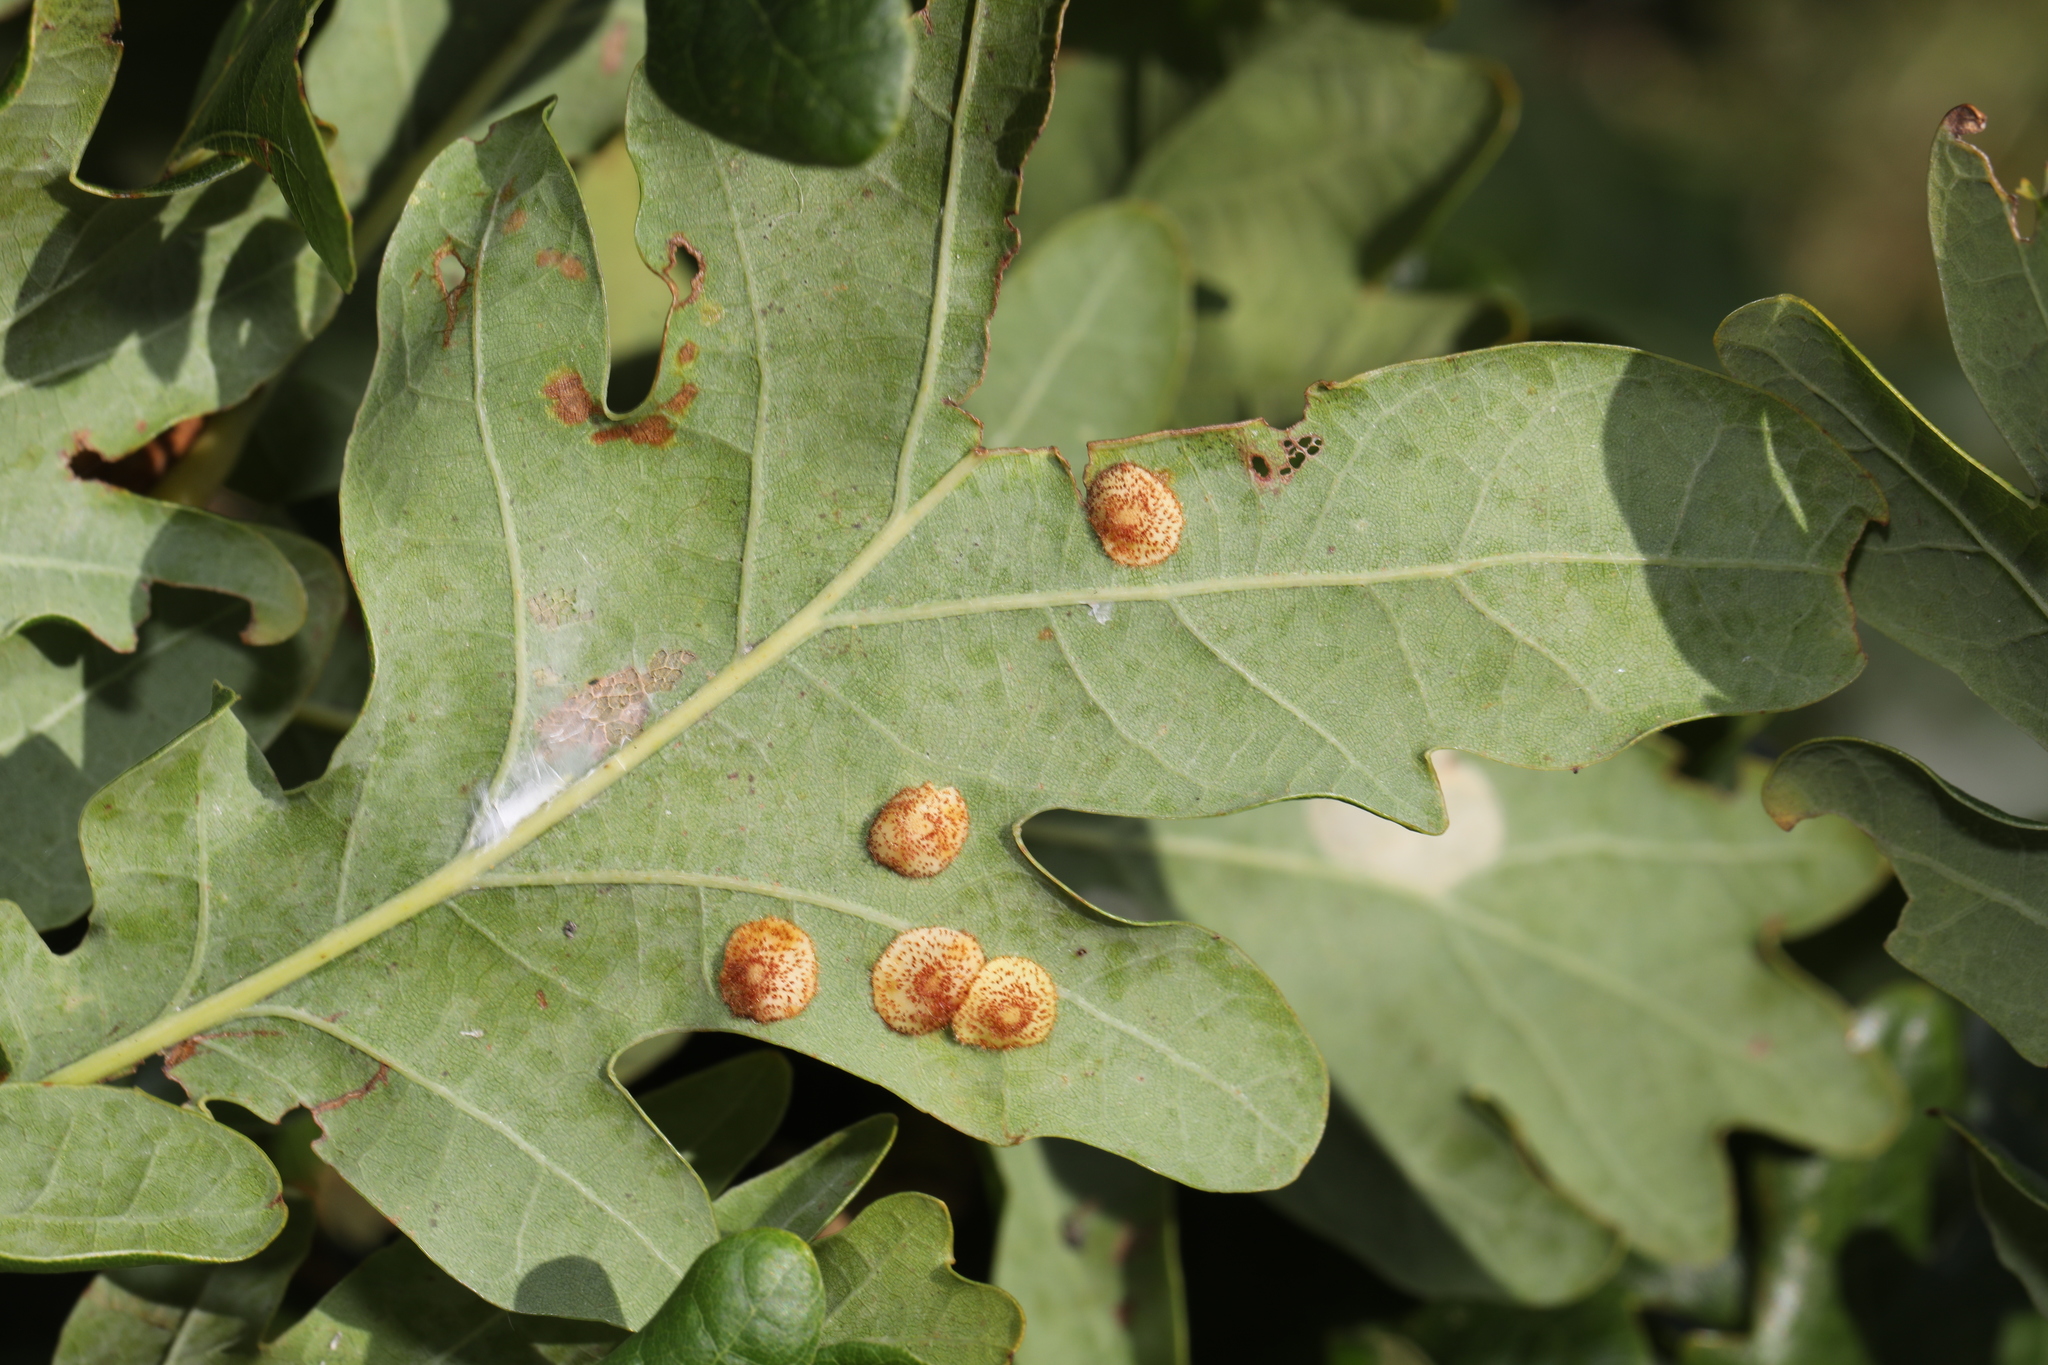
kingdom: Animalia
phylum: Arthropoda
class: Insecta
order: Hymenoptera
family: Cynipidae
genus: Neuroterus
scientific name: Neuroterus quercusbaccarum
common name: Common spangle gall
